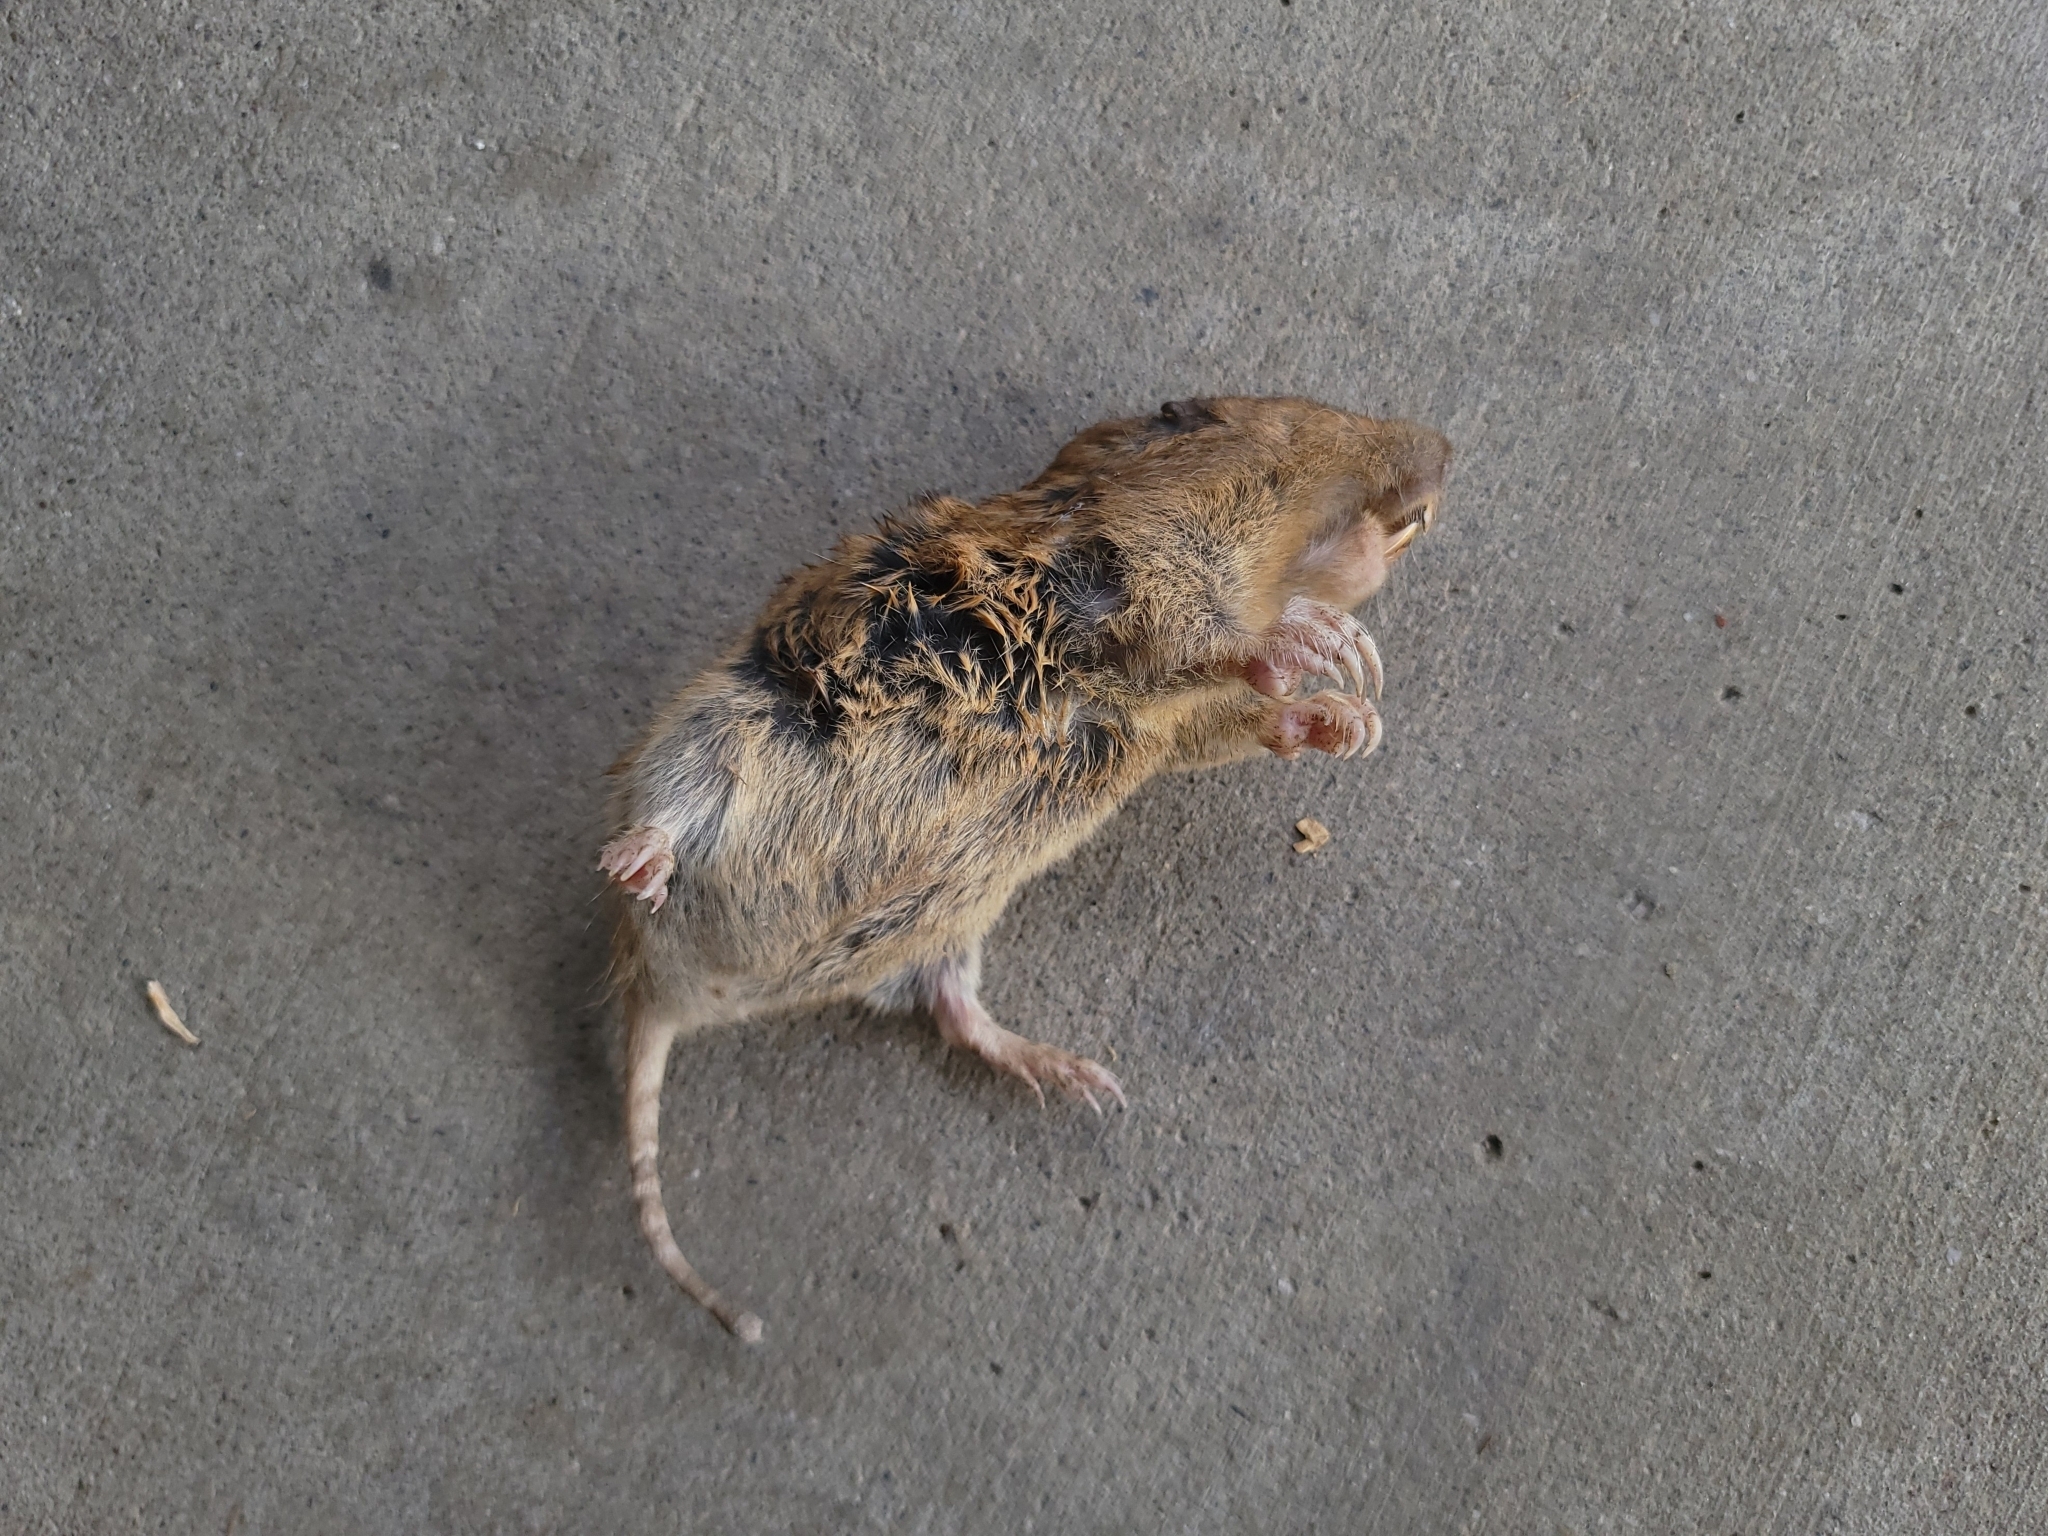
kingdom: Animalia
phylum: Chordata
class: Mammalia
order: Rodentia
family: Geomyidae
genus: Thomomys
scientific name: Thomomys bottae
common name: Botta's pocket gopher
